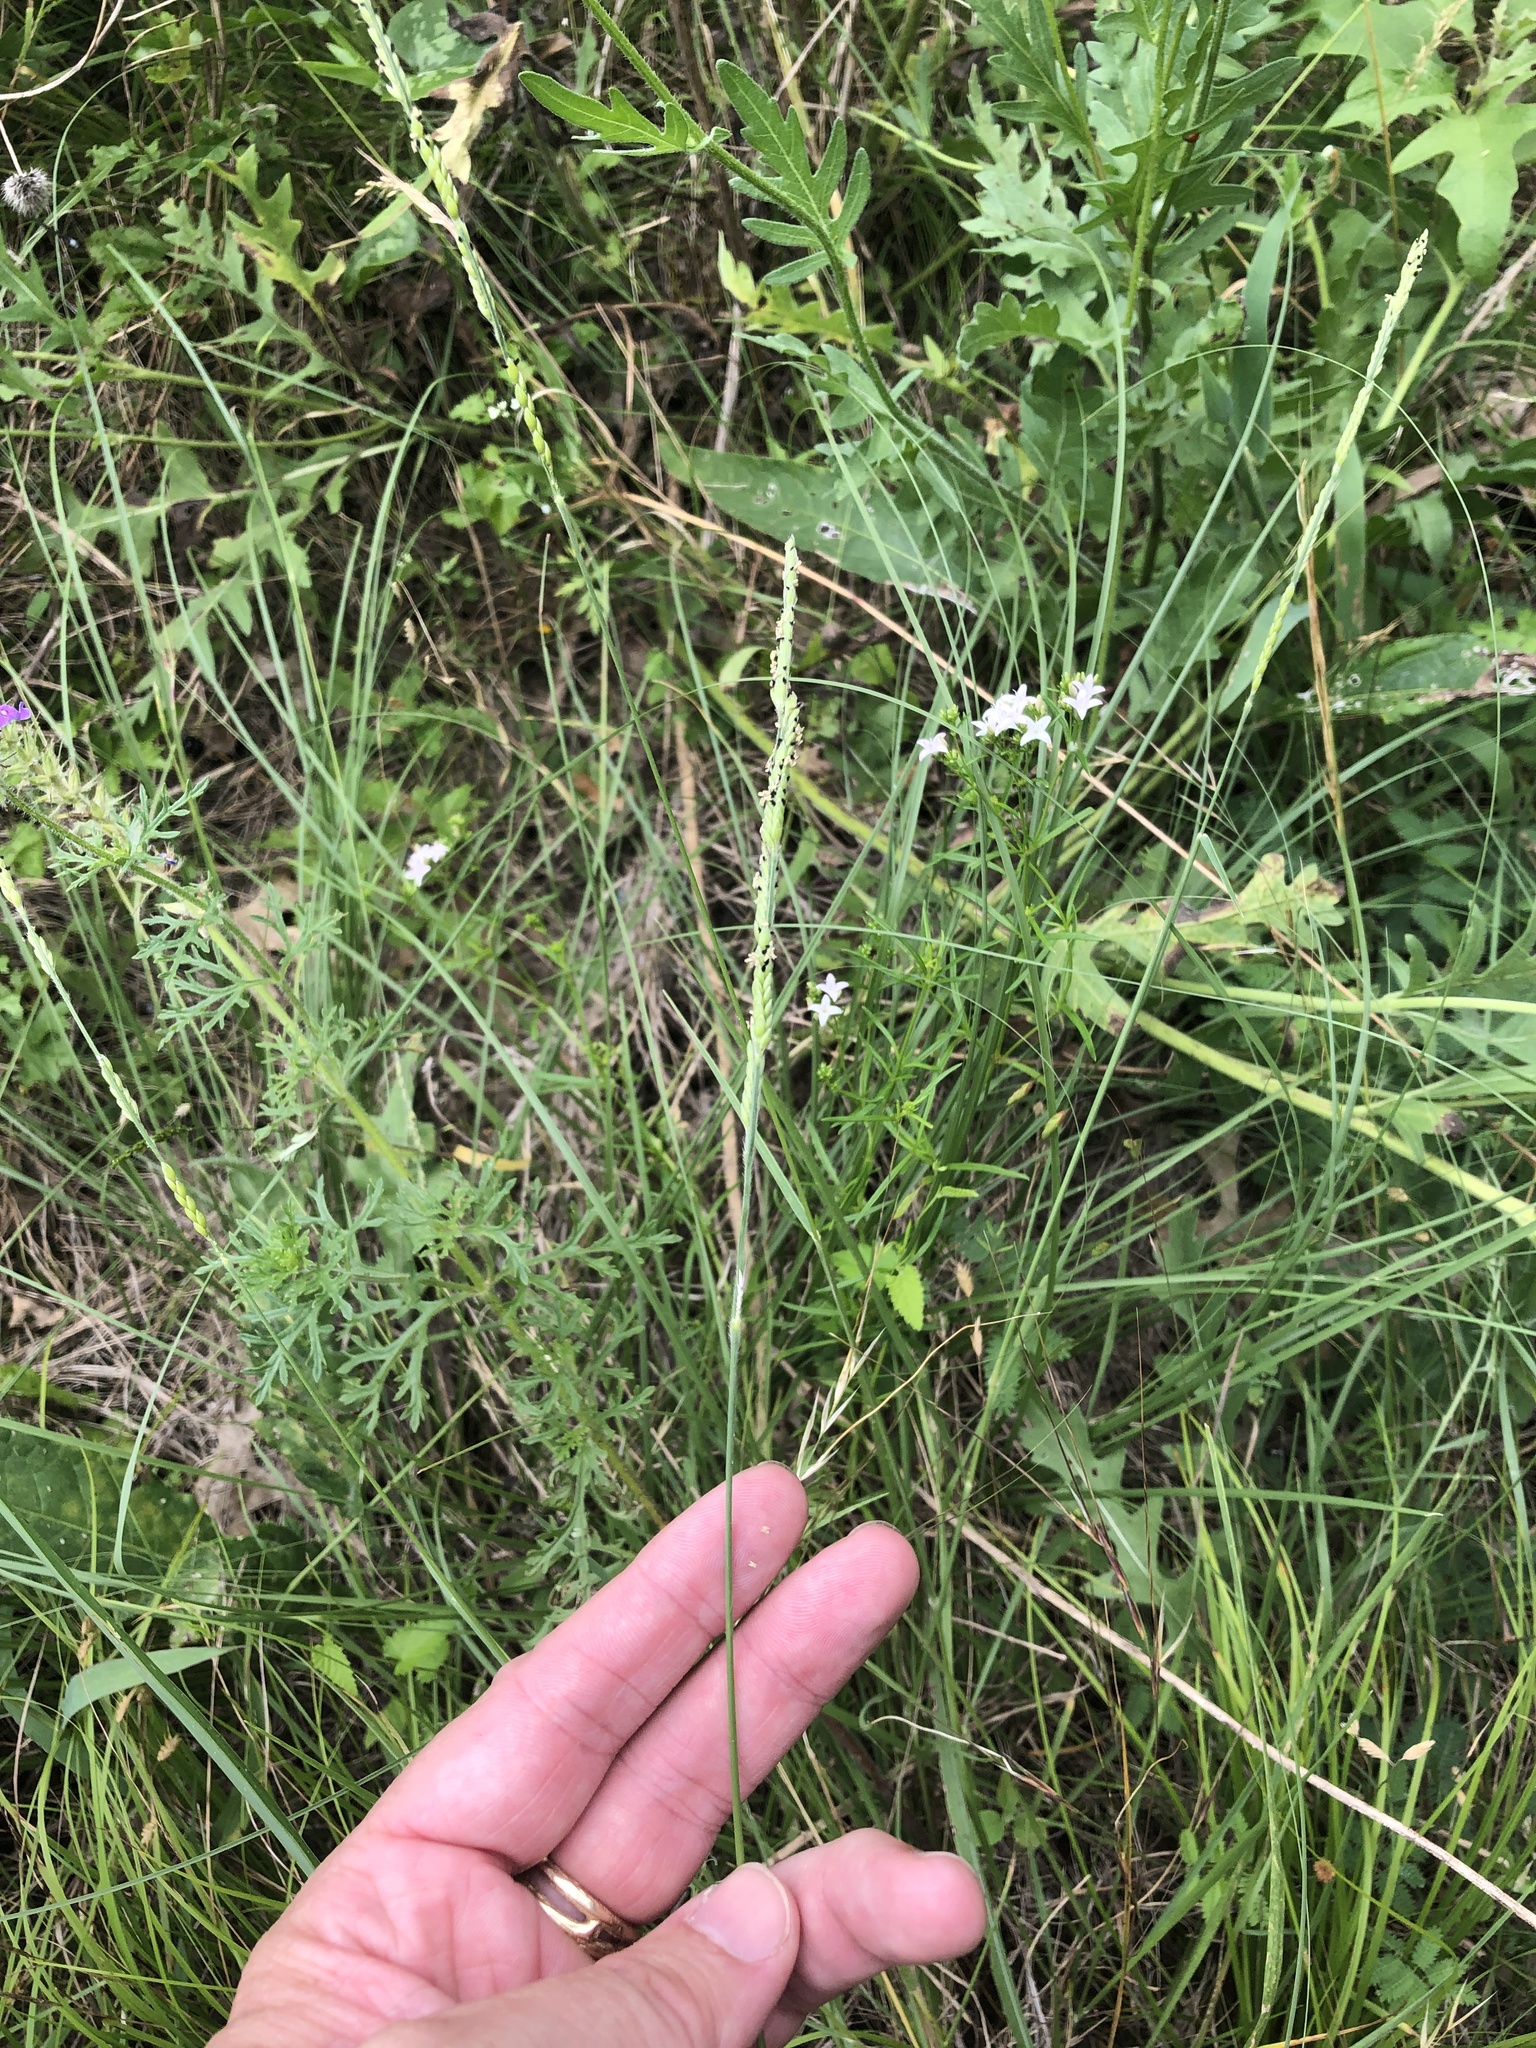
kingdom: Plantae
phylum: Tracheophyta
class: Liliopsida
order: Poales
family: Poaceae
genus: Eriochloa
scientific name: Eriochloa sericea
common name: Texas cup grass
